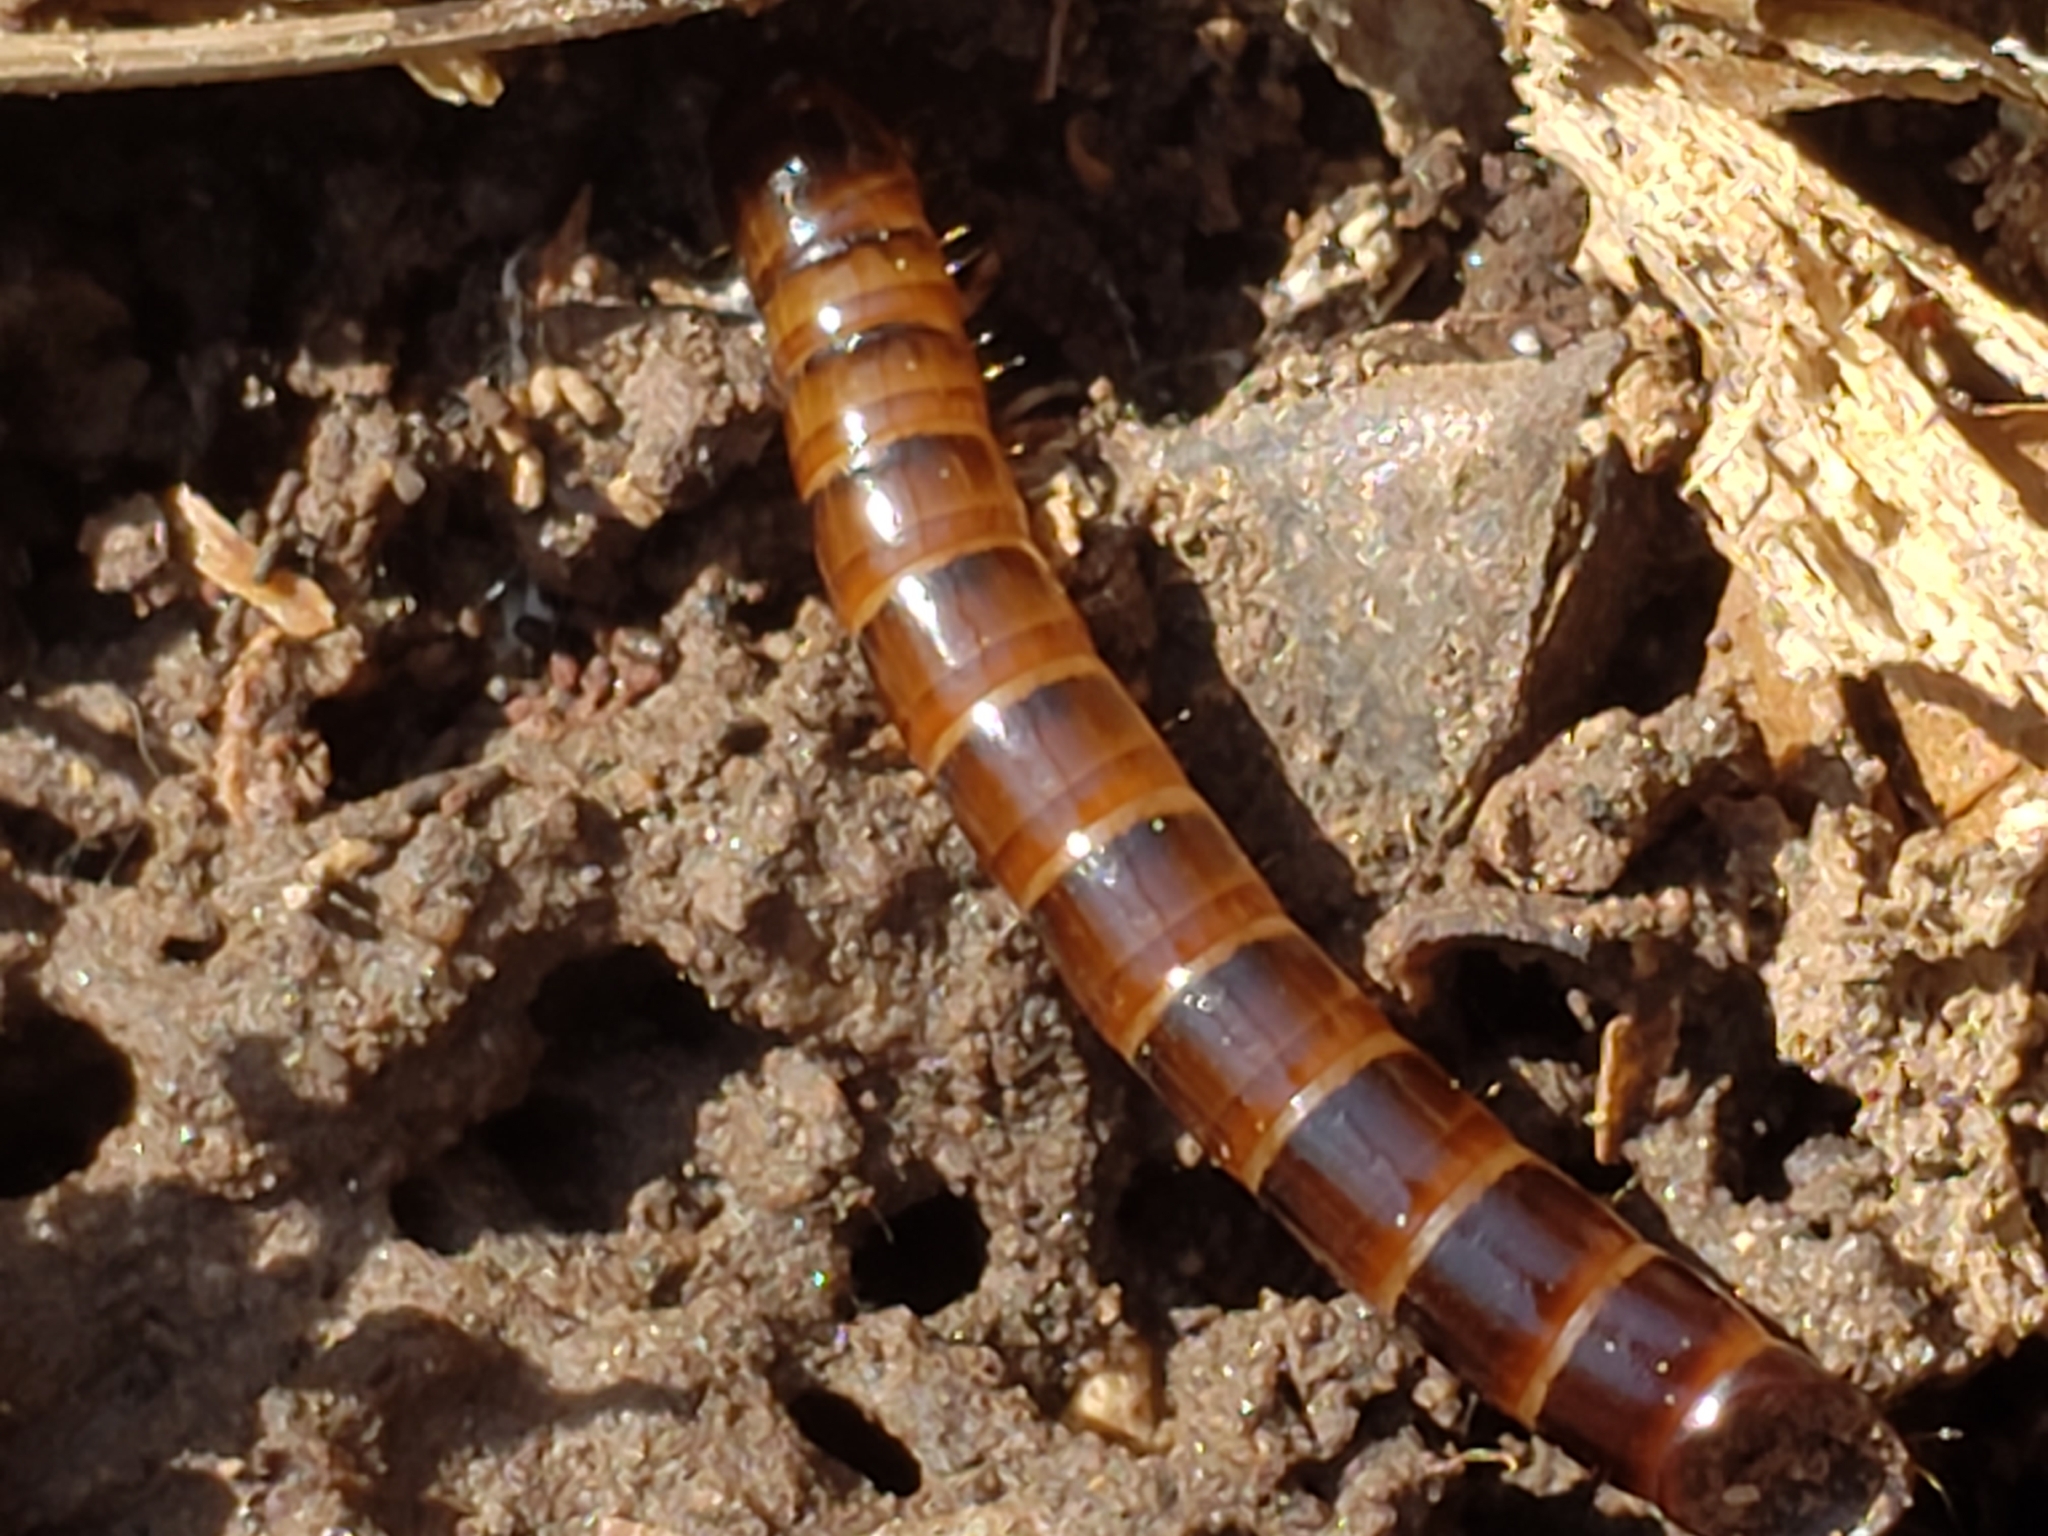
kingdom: Animalia
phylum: Arthropoda
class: Insecta
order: Coleoptera
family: Tenebrionidae
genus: Meracantha
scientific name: Meracantha contracta
